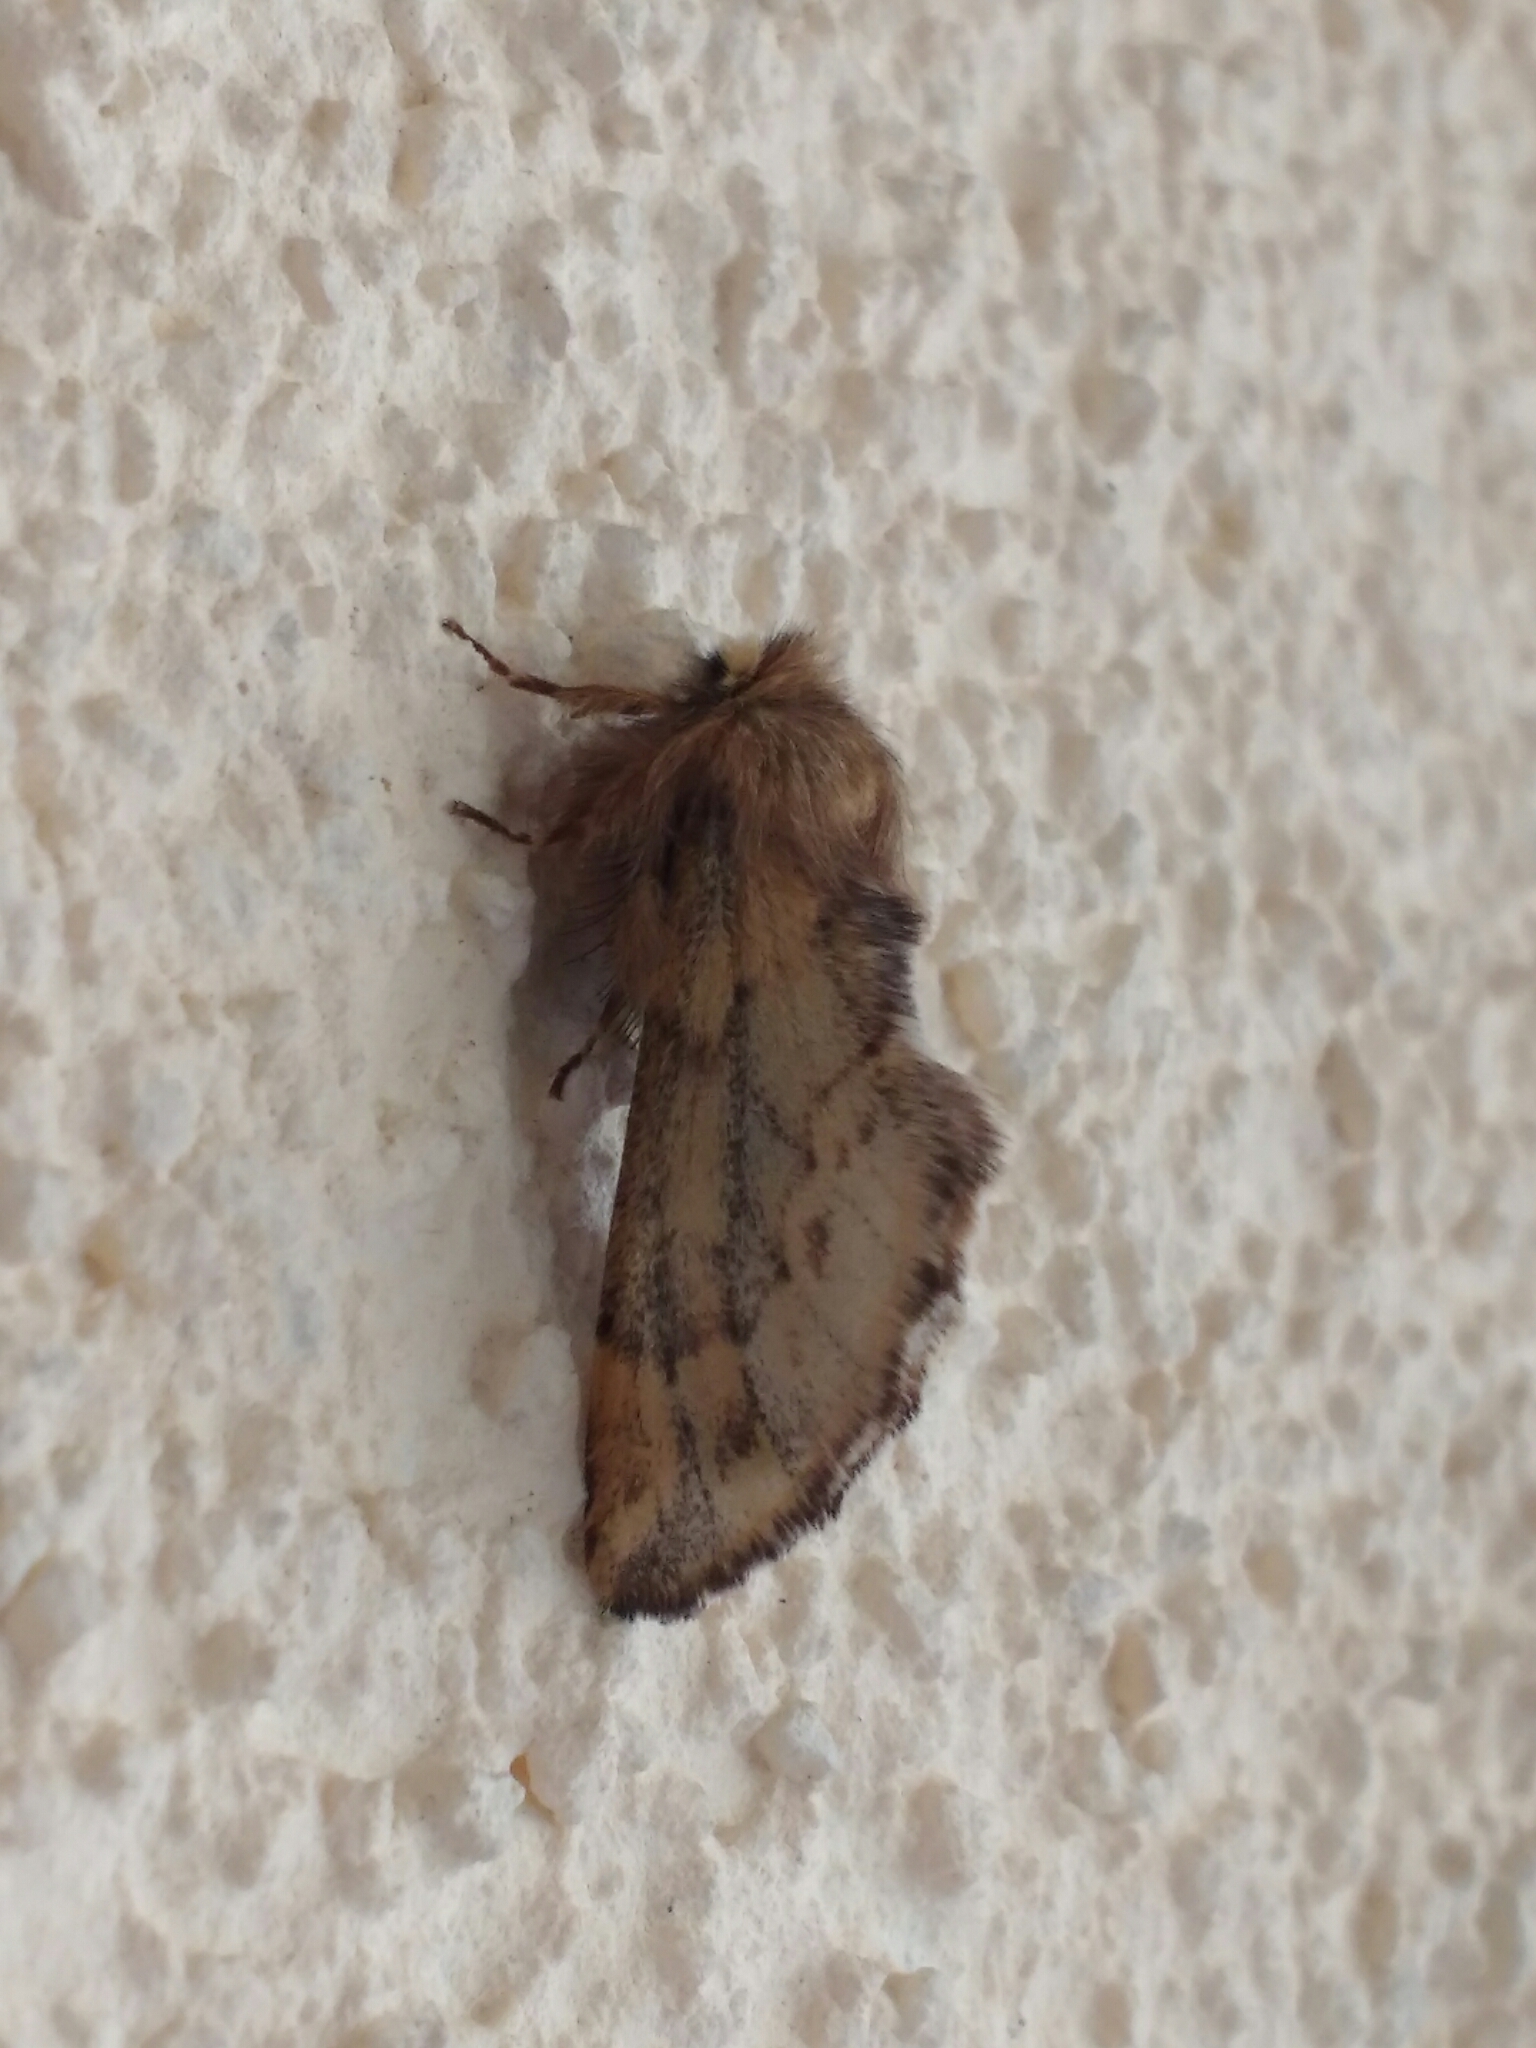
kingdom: Animalia
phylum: Arthropoda
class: Insecta
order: Lepidoptera
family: Notodontidae
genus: Ptilophora
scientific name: Ptilophora plumigera
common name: Plumed prominent
